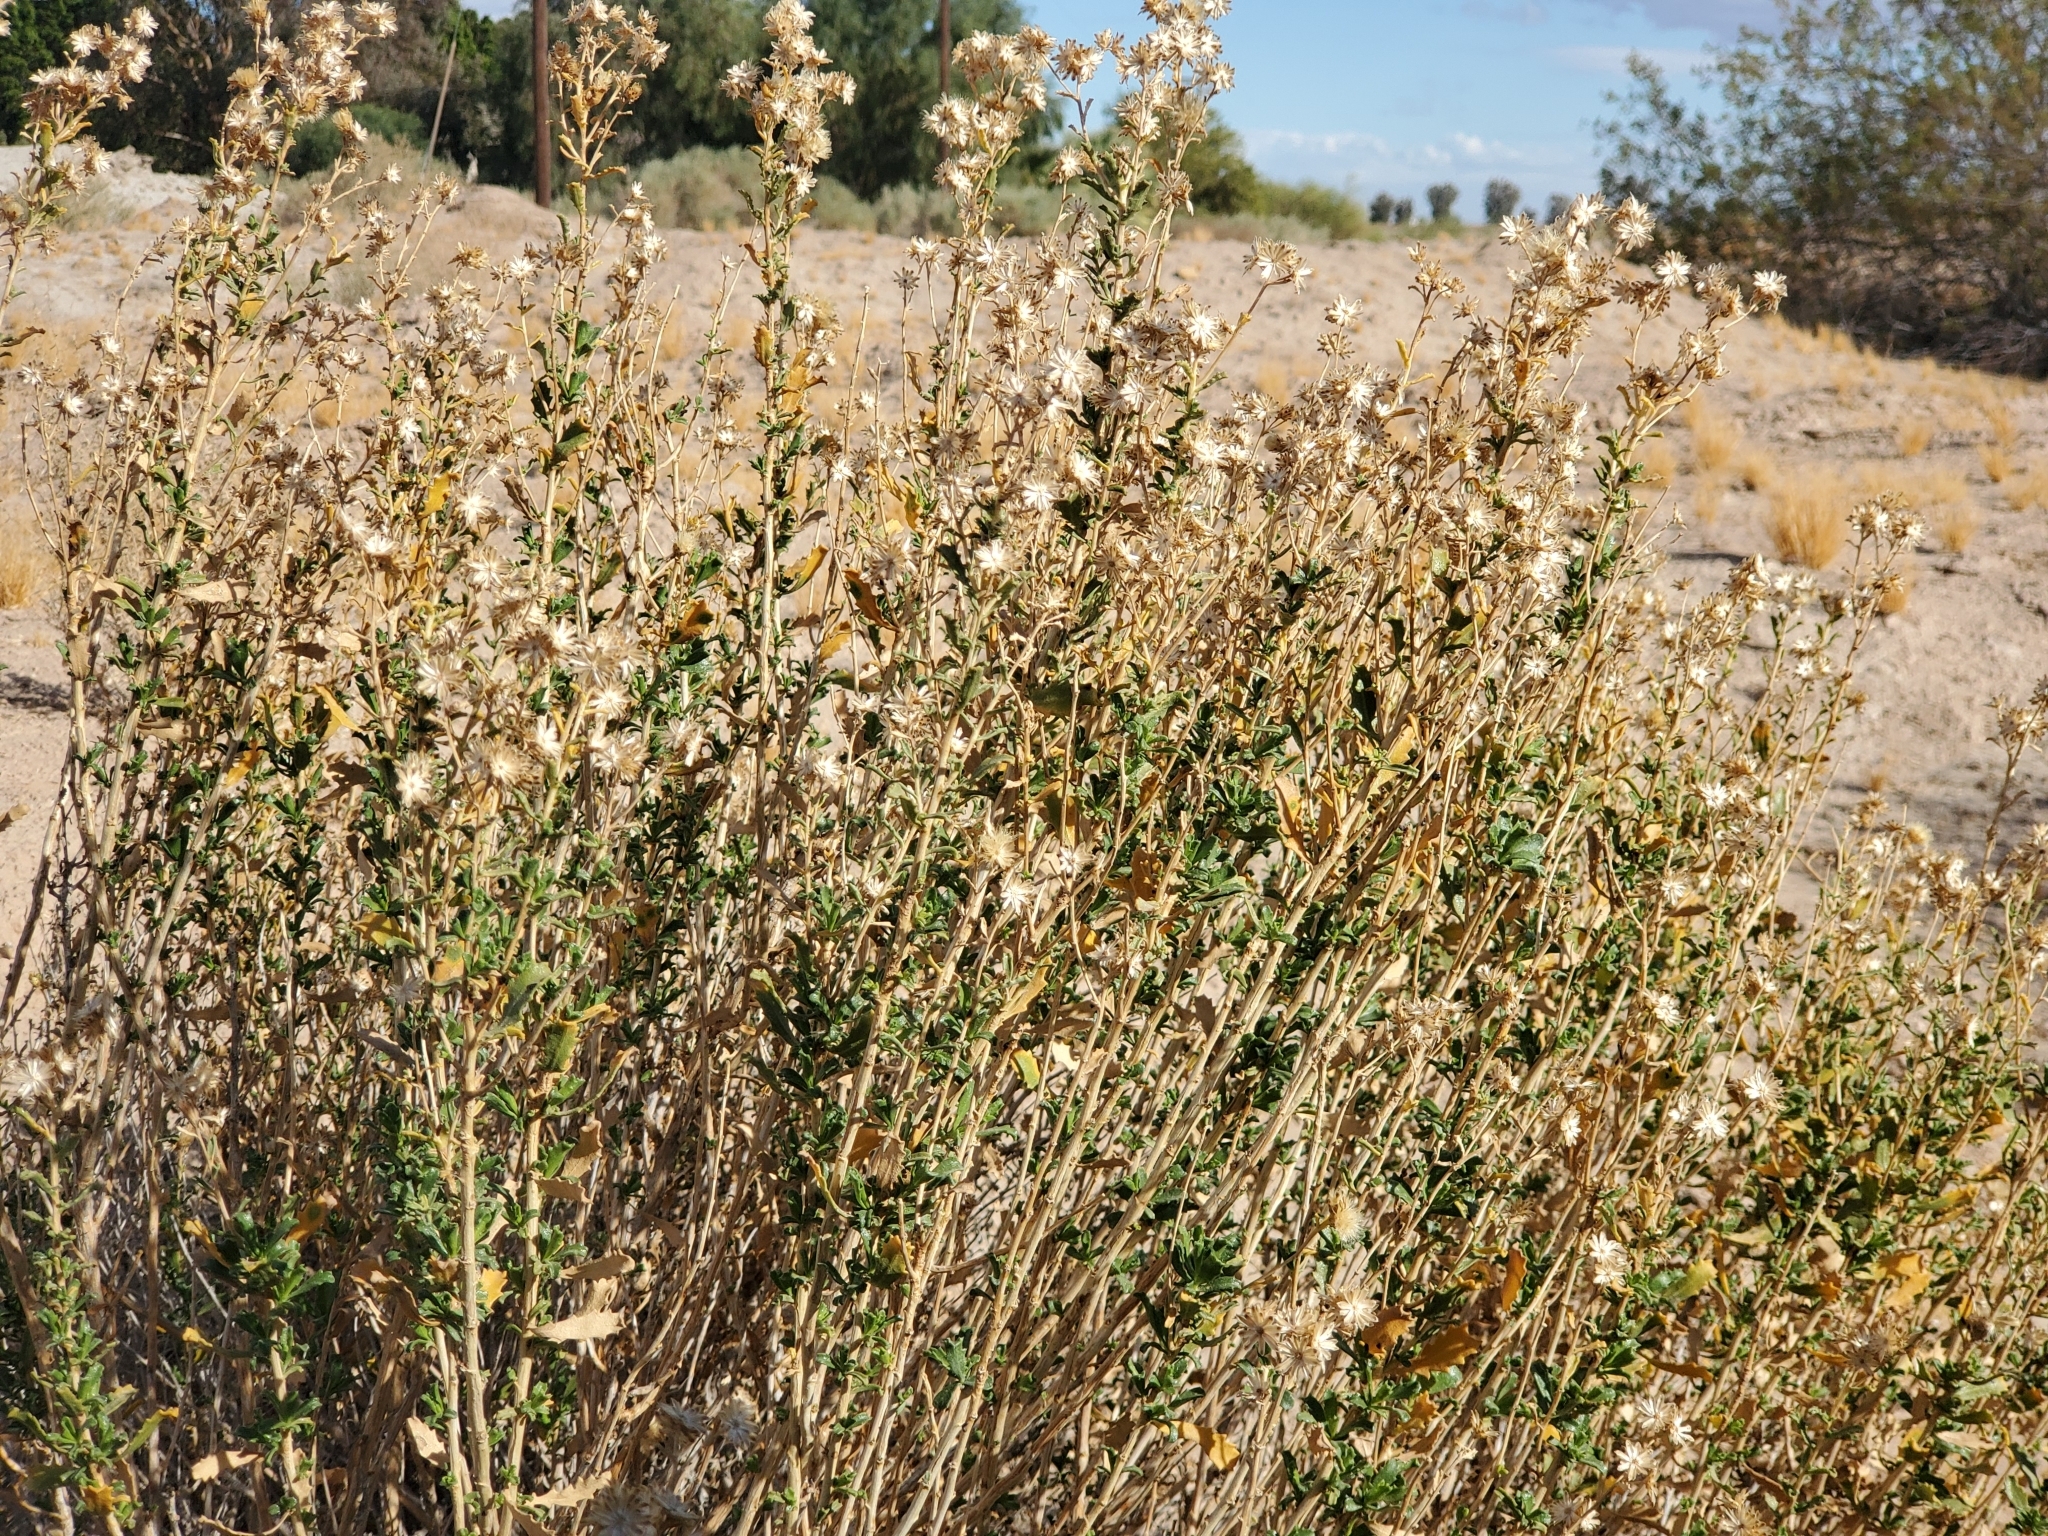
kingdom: Plantae
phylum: Tracheophyta
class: Magnoliopsida
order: Asterales
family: Asteraceae
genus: Isocoma
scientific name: Isocoma acradenia
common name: Alkali jimmyweed
